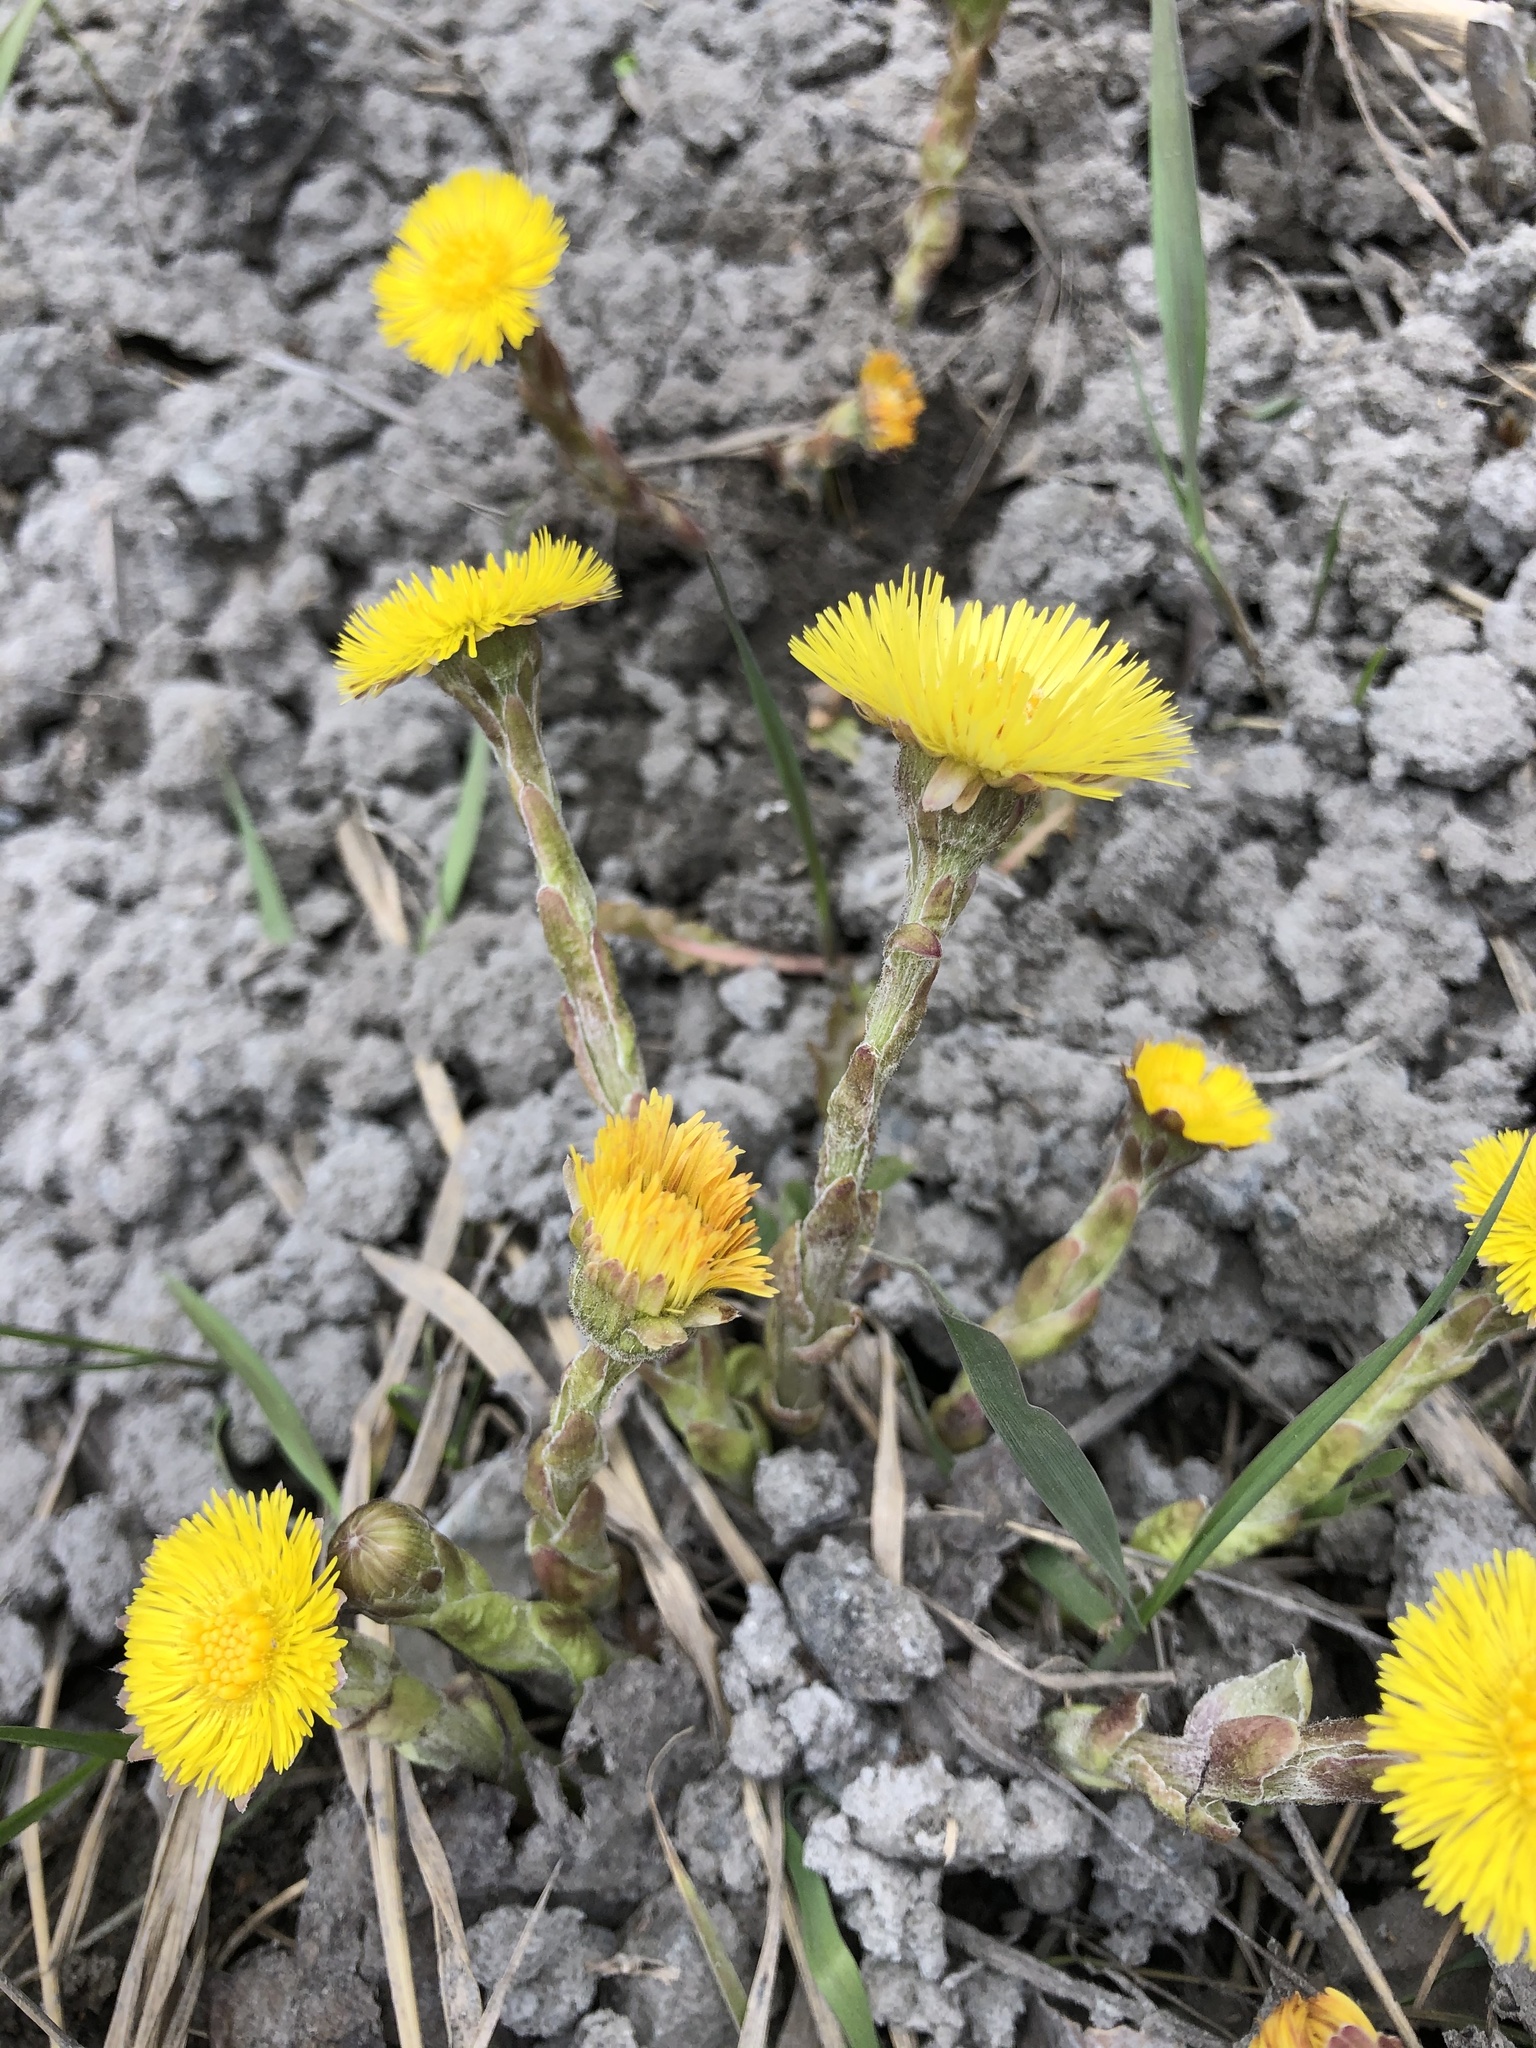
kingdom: Plantae
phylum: Tracheophyta
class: Magnoliopsida
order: Asterales
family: Asteraceae
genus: Tussilago
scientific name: Tussilago farfara
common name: Coltsfoot
